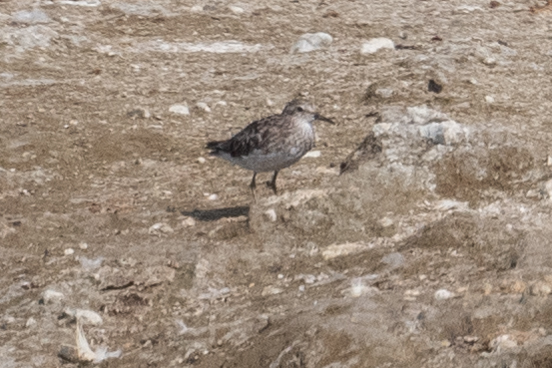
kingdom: Animalia
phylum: Chordata
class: Aves
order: Charadriiformes
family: Scolopacidae
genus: Calidris
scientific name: Calidris minutilla
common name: Least sandpiper
